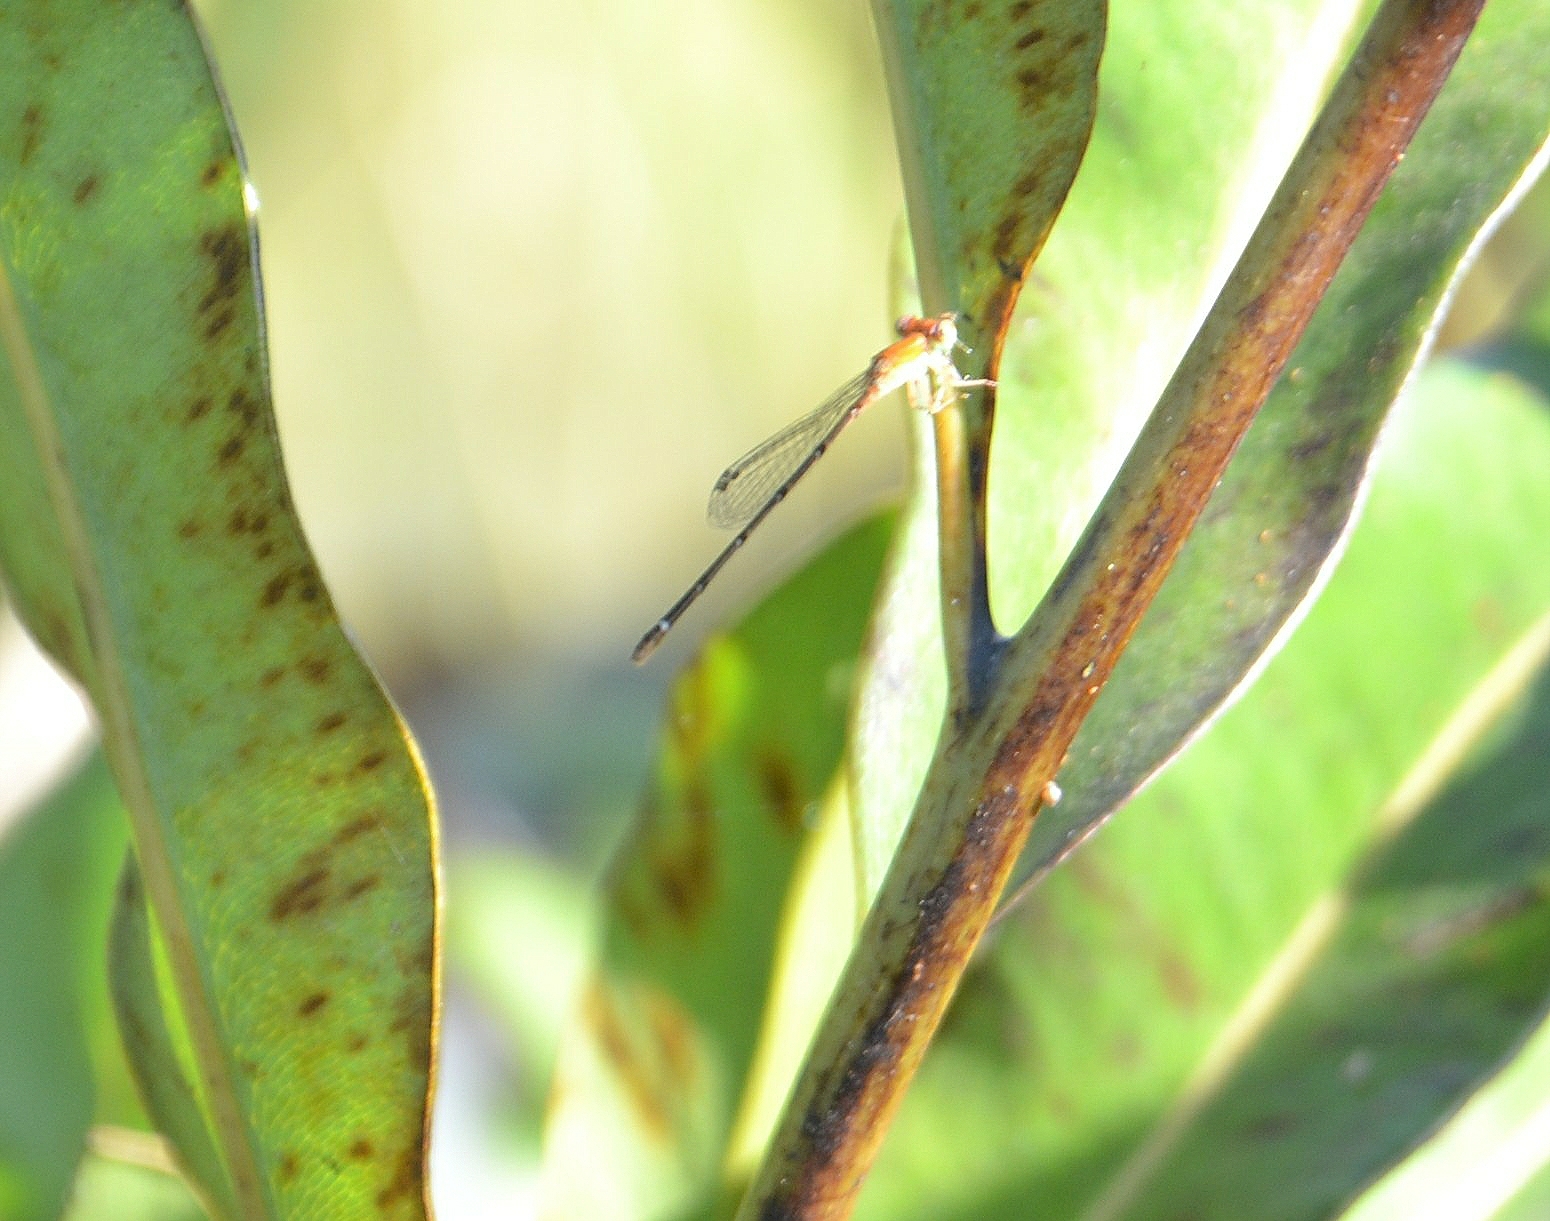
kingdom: Animalia
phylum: Arthropoda
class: Insecta
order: Odonata
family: Coenagrionidae
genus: Mortonagrion
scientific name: Mortonagrion varralli
